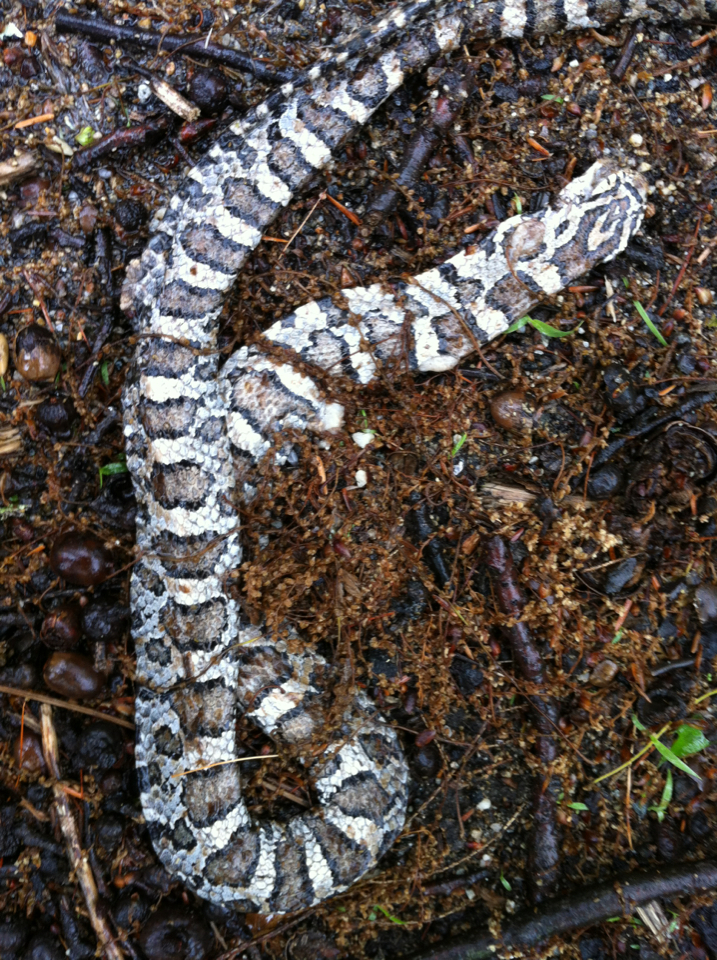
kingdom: Animalia
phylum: Chordata
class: Squamata
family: Colubridae
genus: Lampropeltis
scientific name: Lampropeltis triangulum
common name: Eastern milksnake
